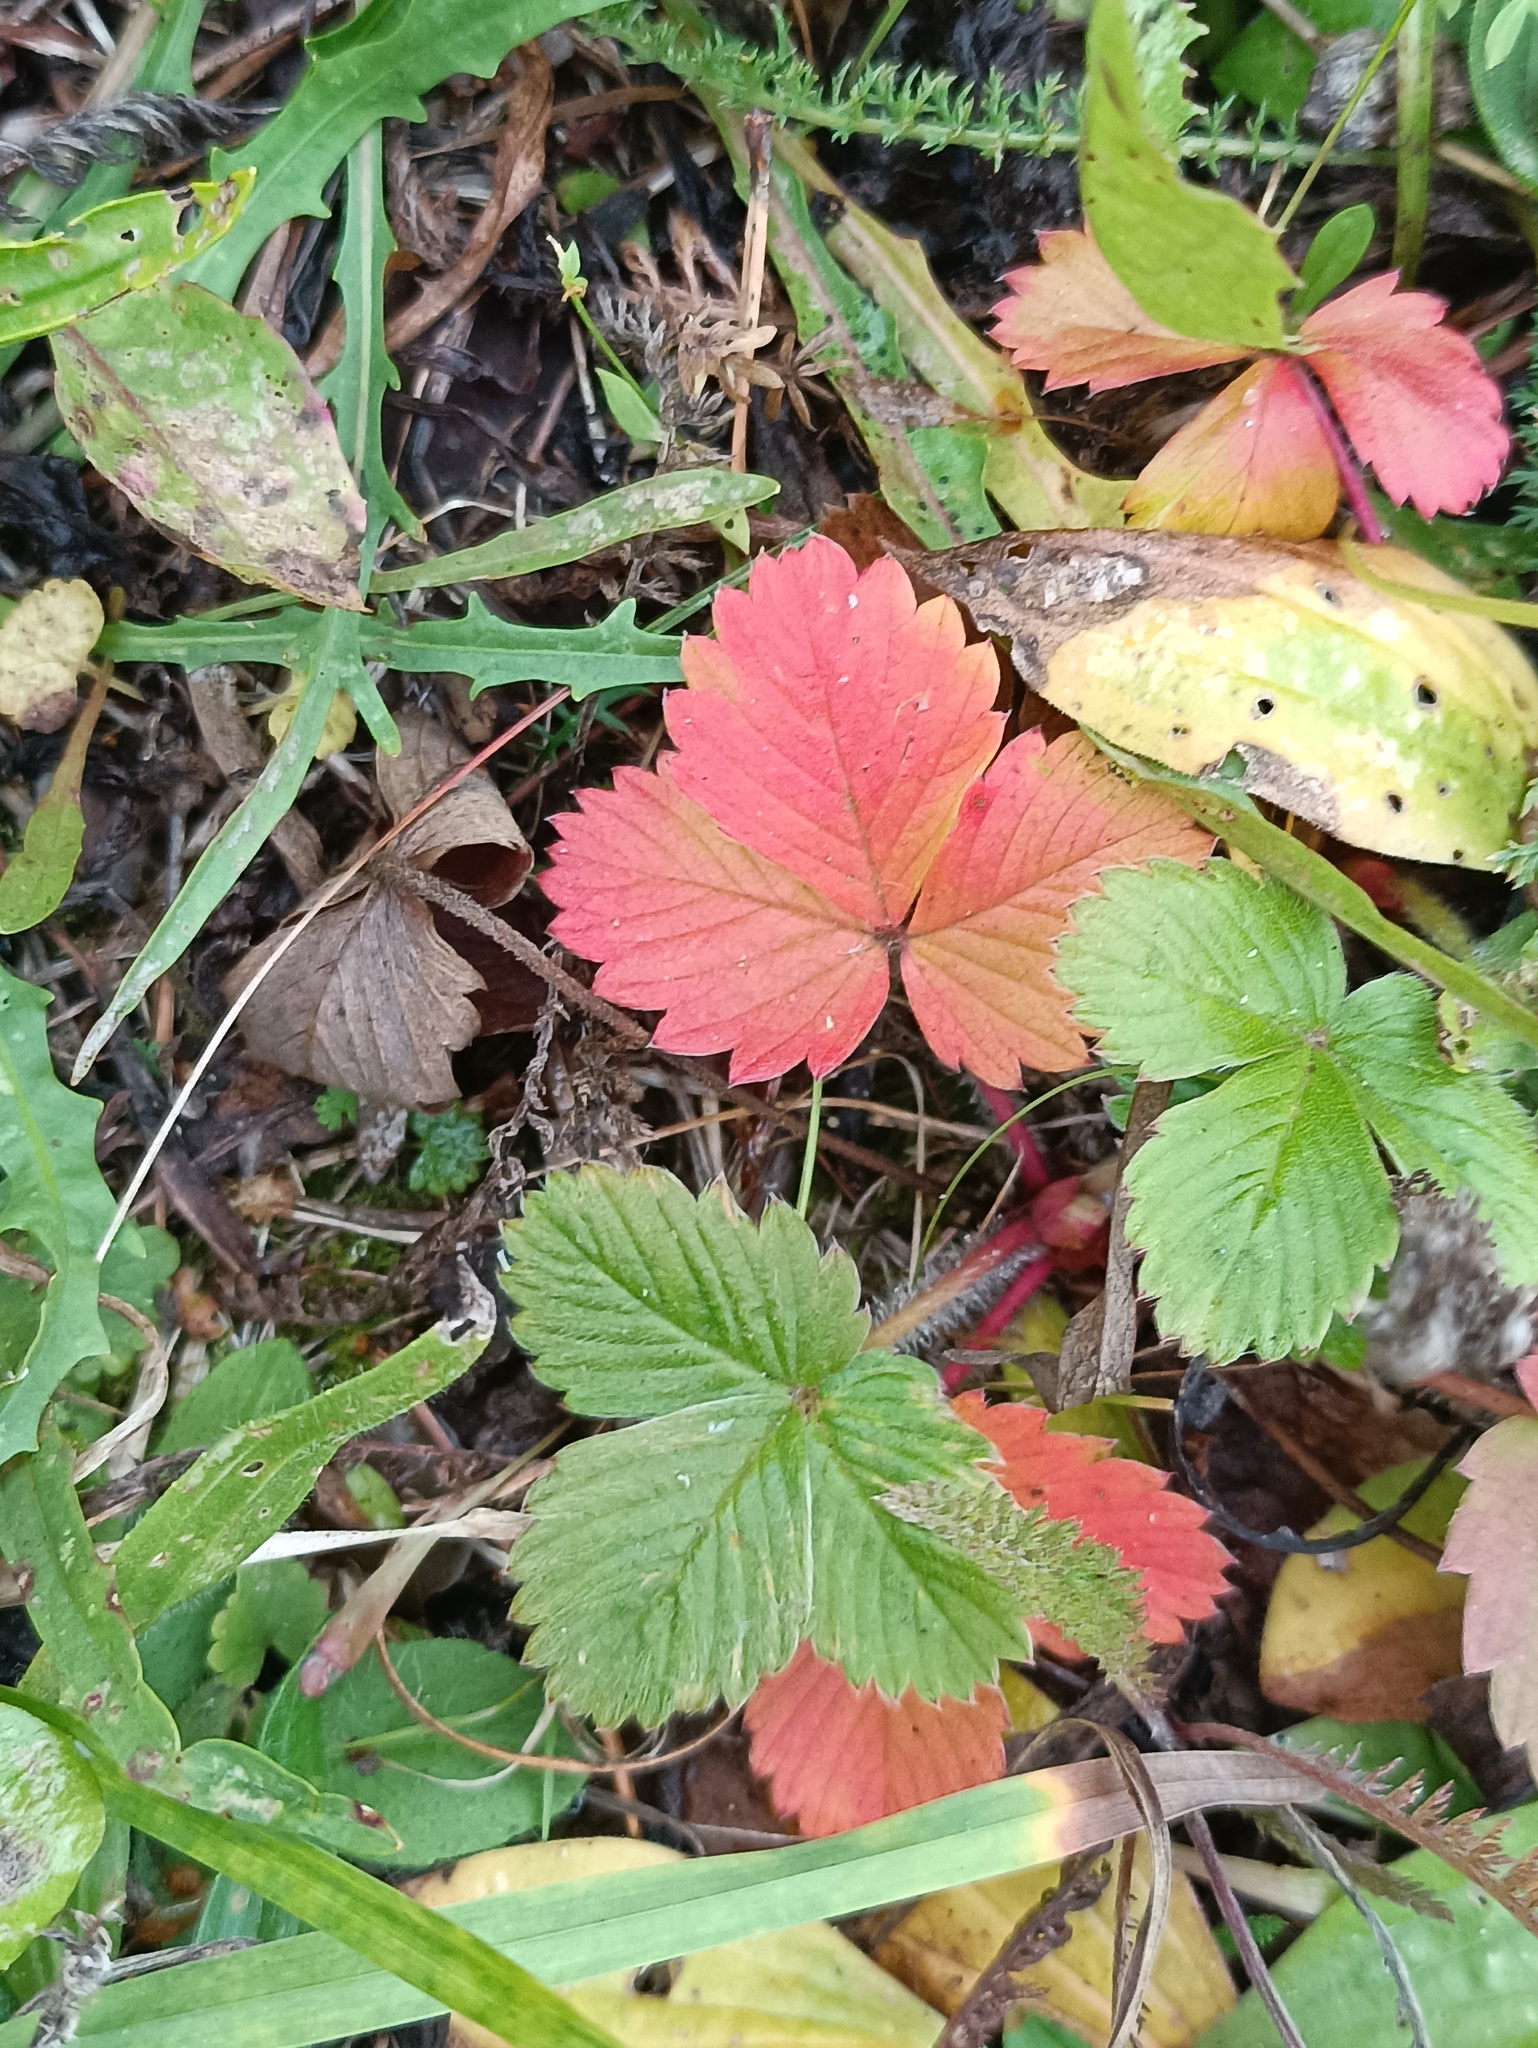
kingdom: Plantae
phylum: Tracheophyta
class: Magnoliopsida
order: Rosales
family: Rosaceae
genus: Fragaria
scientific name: Fragaria vesca
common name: Wild strawberry
